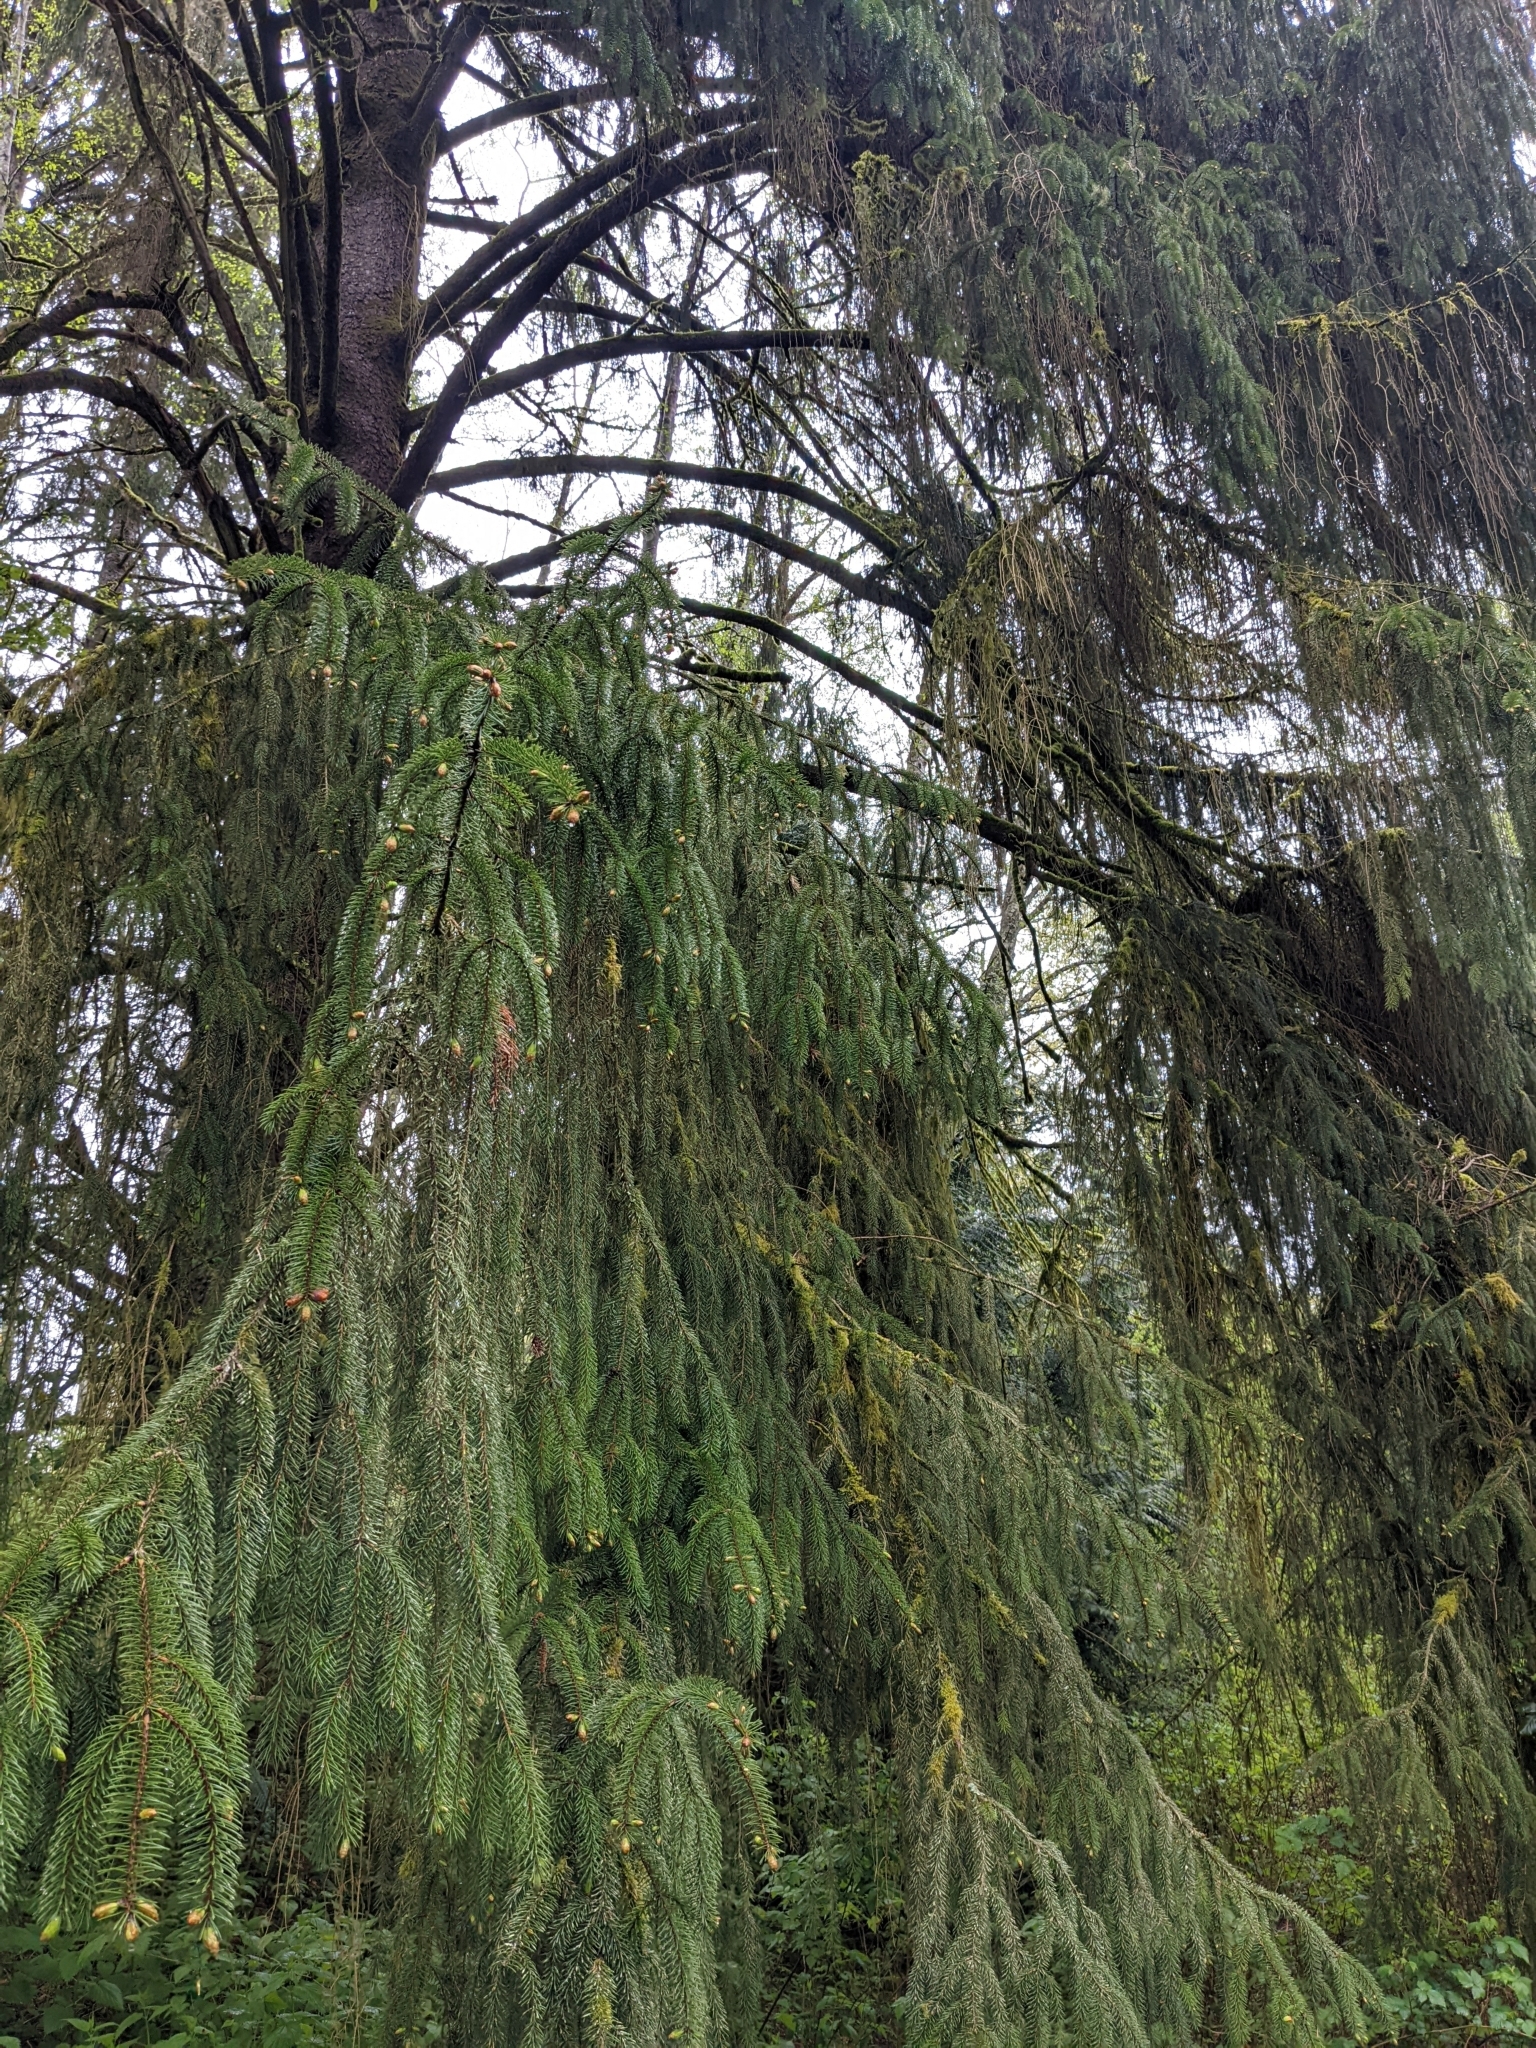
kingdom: Plantae
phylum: Tracheophyta
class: Pinopsida
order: Pinales
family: Pinaceae
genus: Picea
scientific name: Picea sitchensis
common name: Sitka spruce
